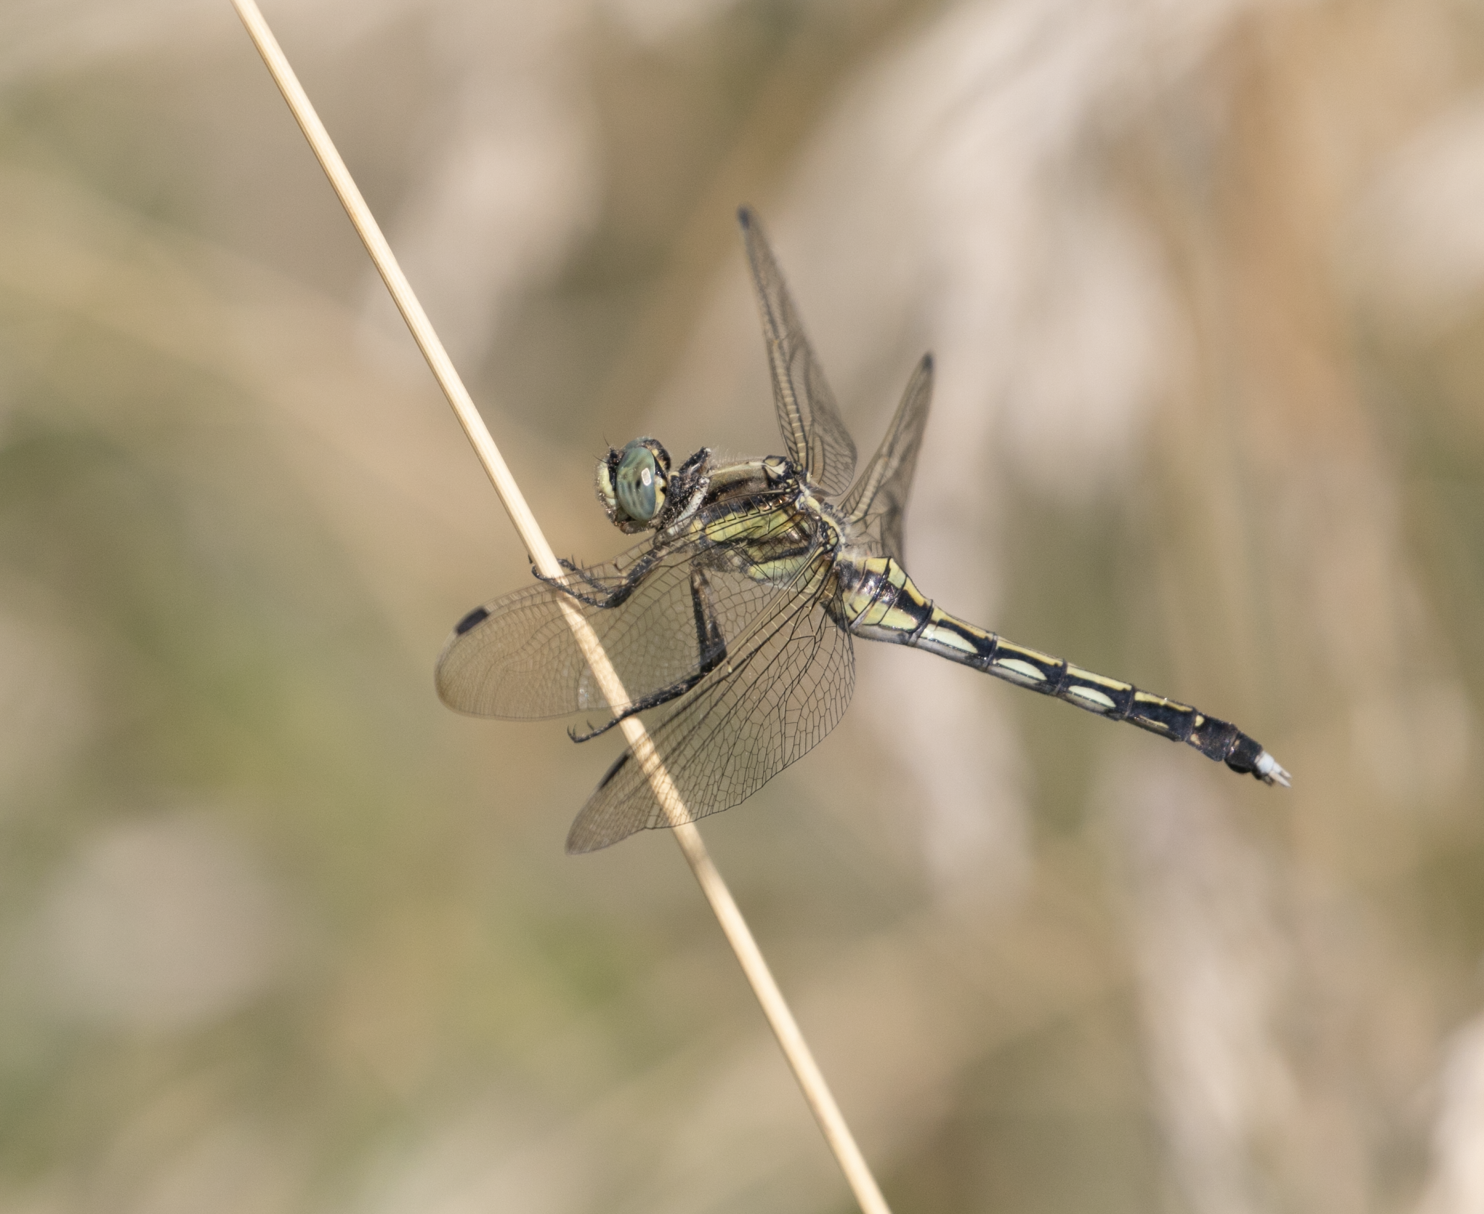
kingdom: Animalia
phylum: Arthropoda
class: Insecta
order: Odonata
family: Libellulidae
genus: Orthetrum
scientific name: Orthetrum albistylum
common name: White-tailed skimmer
